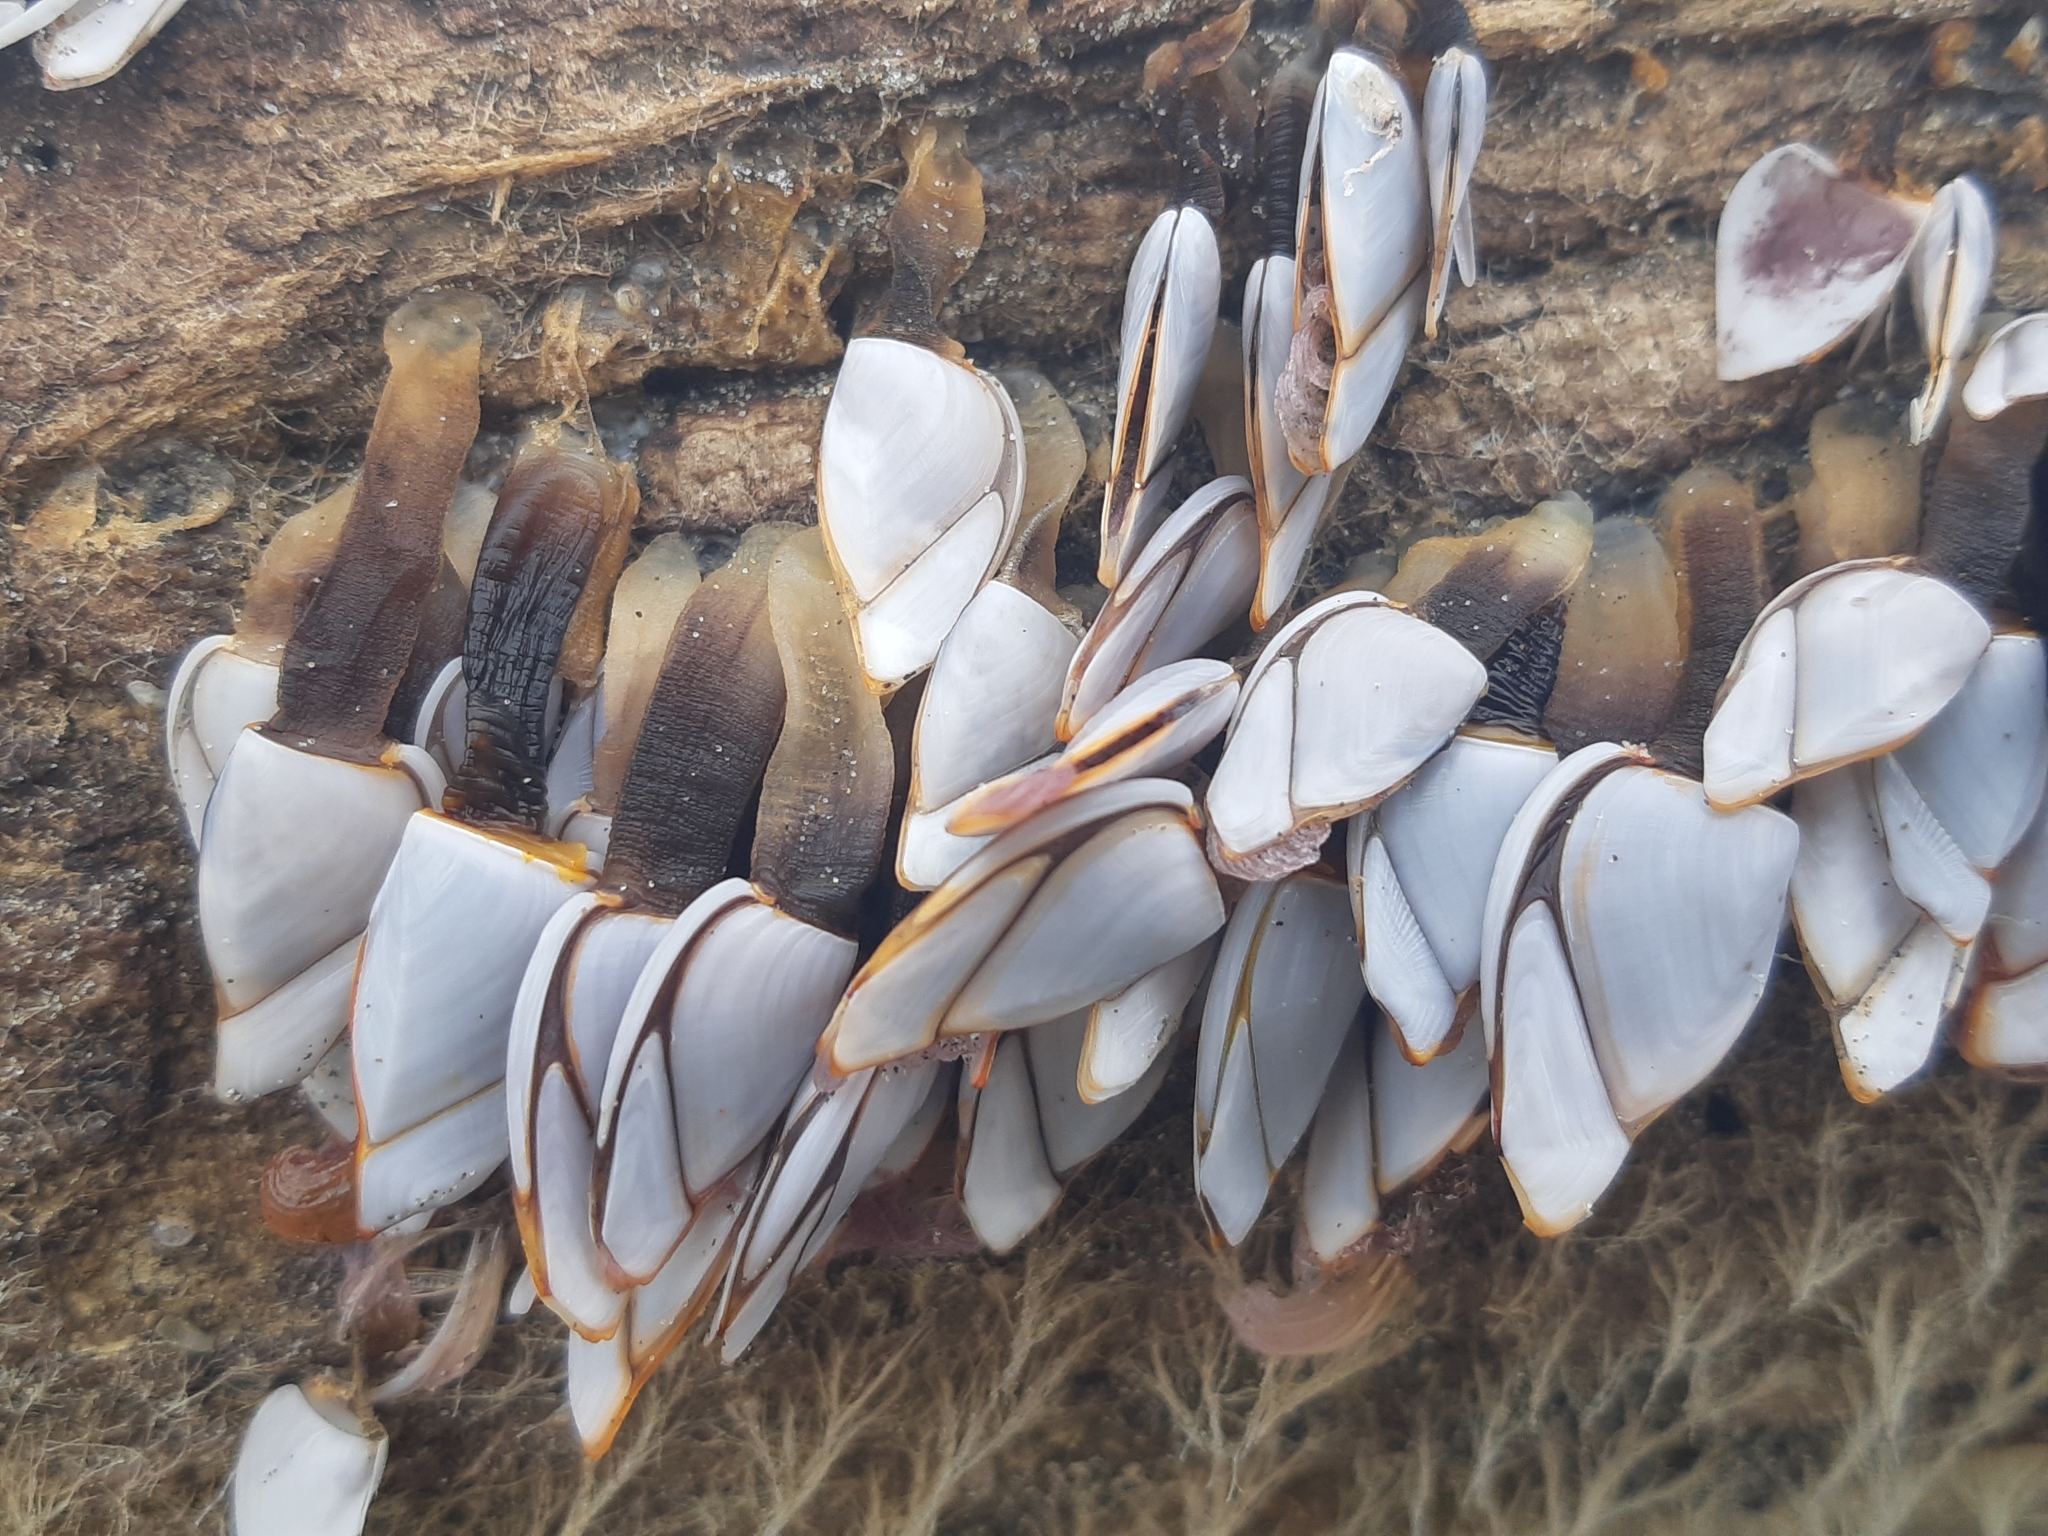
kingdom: Animalia
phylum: Arthropoda
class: Maxillopoda
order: Pedunculata
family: Lepadidae
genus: Lepas
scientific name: Lepas anserifera
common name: Goose barnacle
